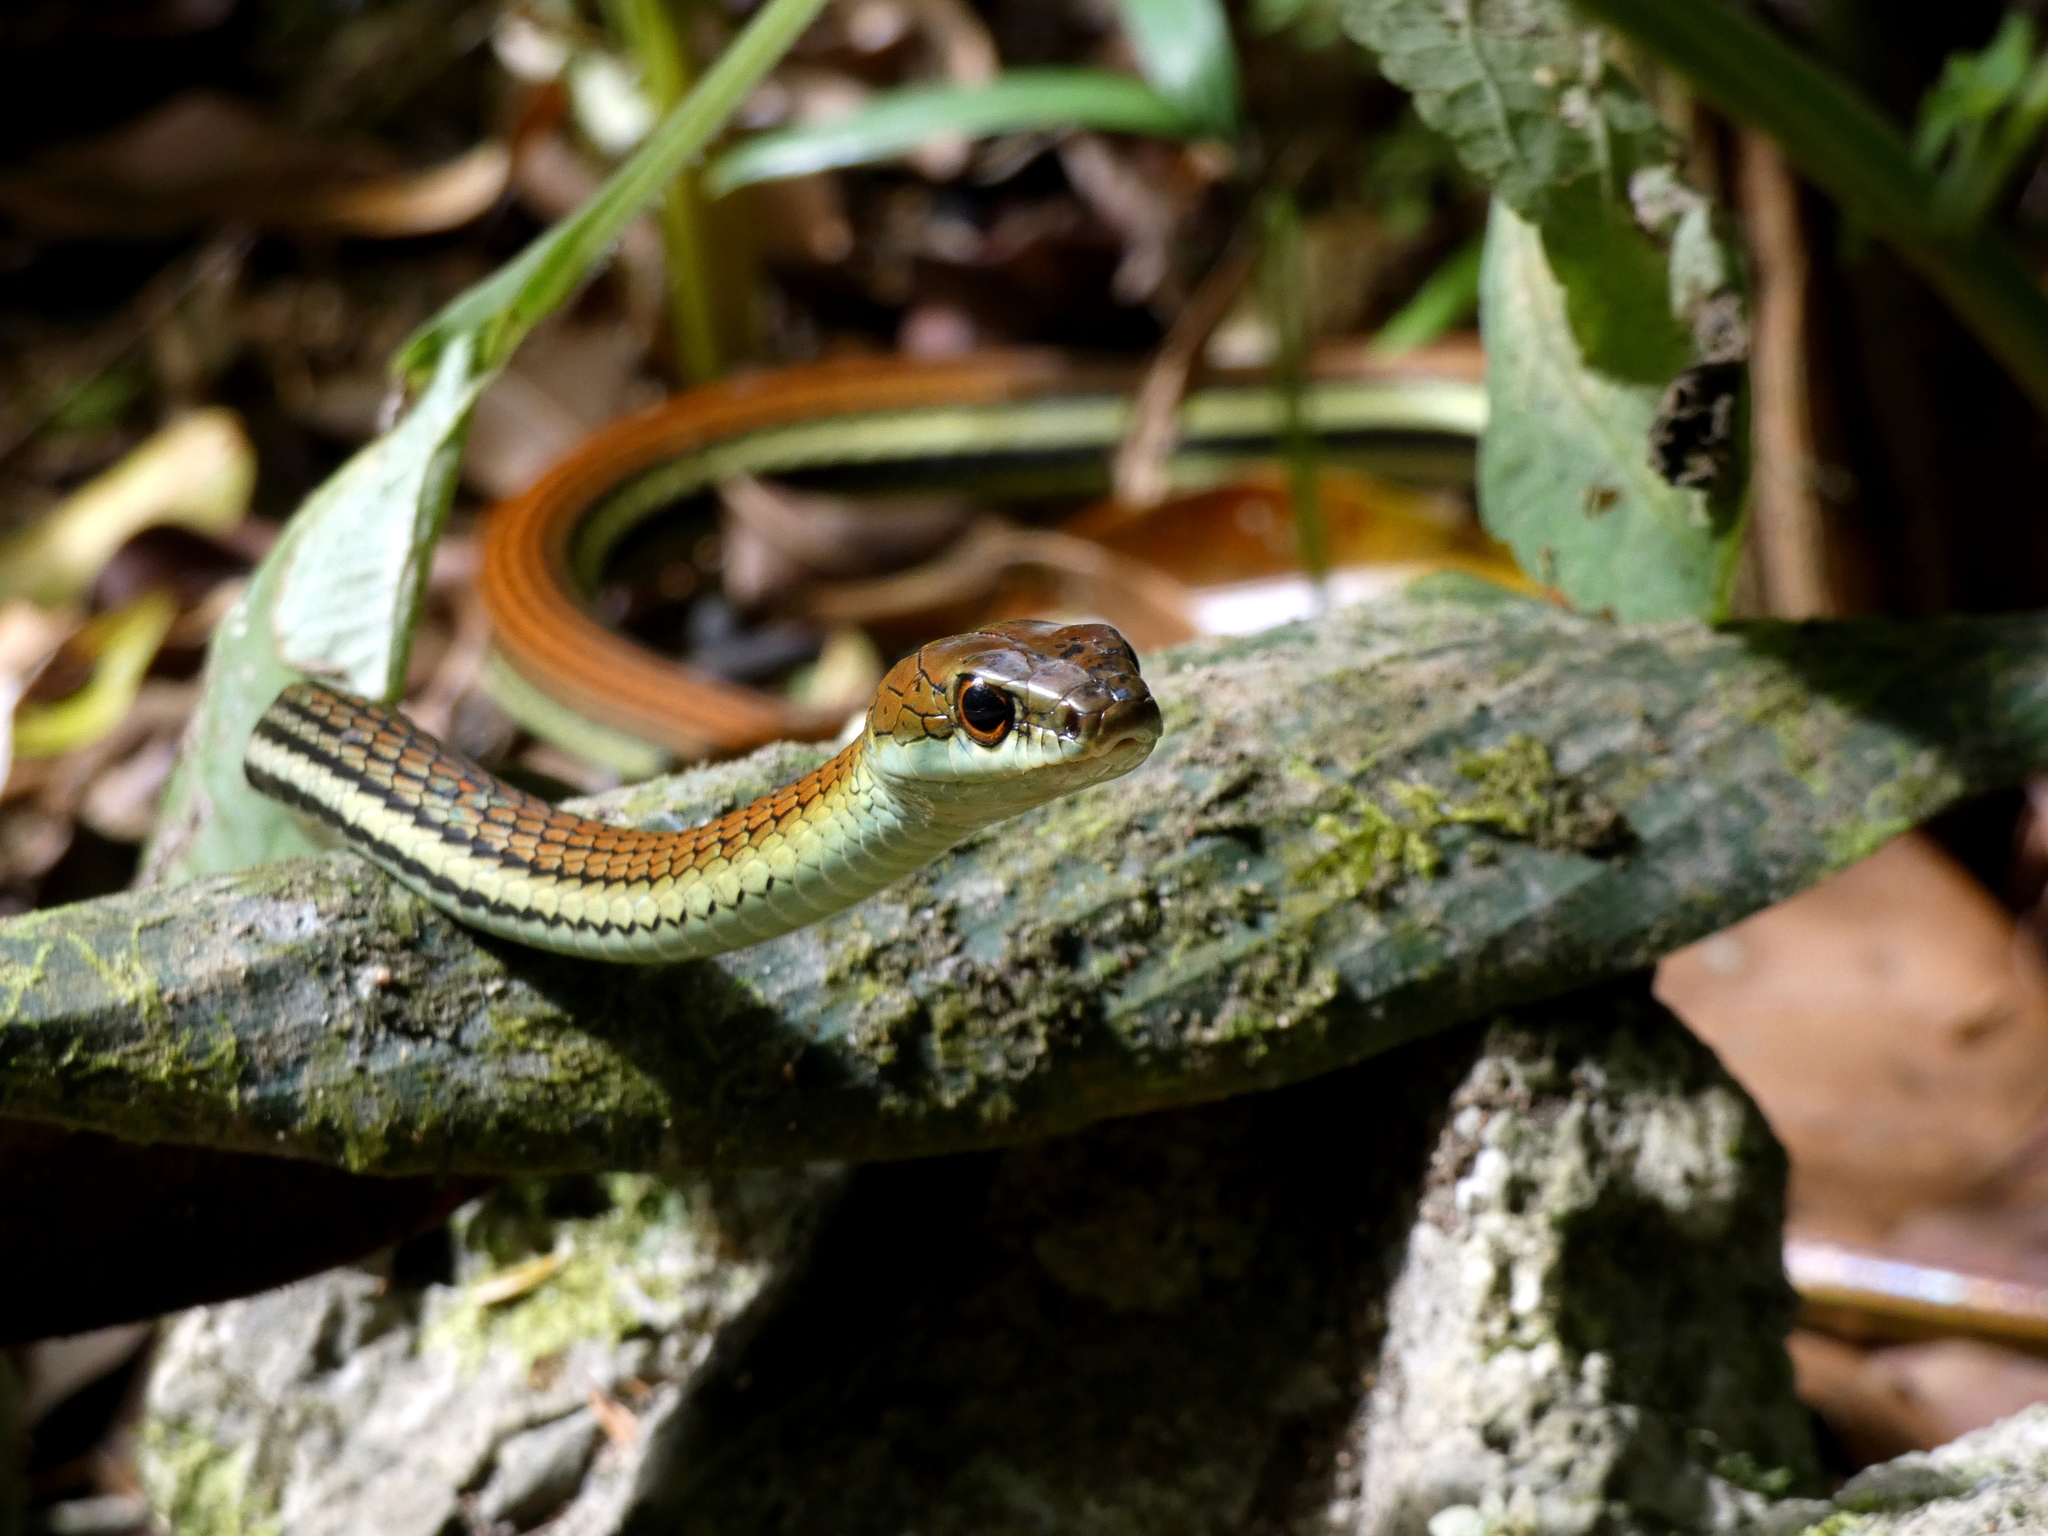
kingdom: Animalia
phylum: Chordata
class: Squamata
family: Colubridae
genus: Dendrelaphis
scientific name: Dendrelaphis caudolineatus
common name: Striped bronzeback
